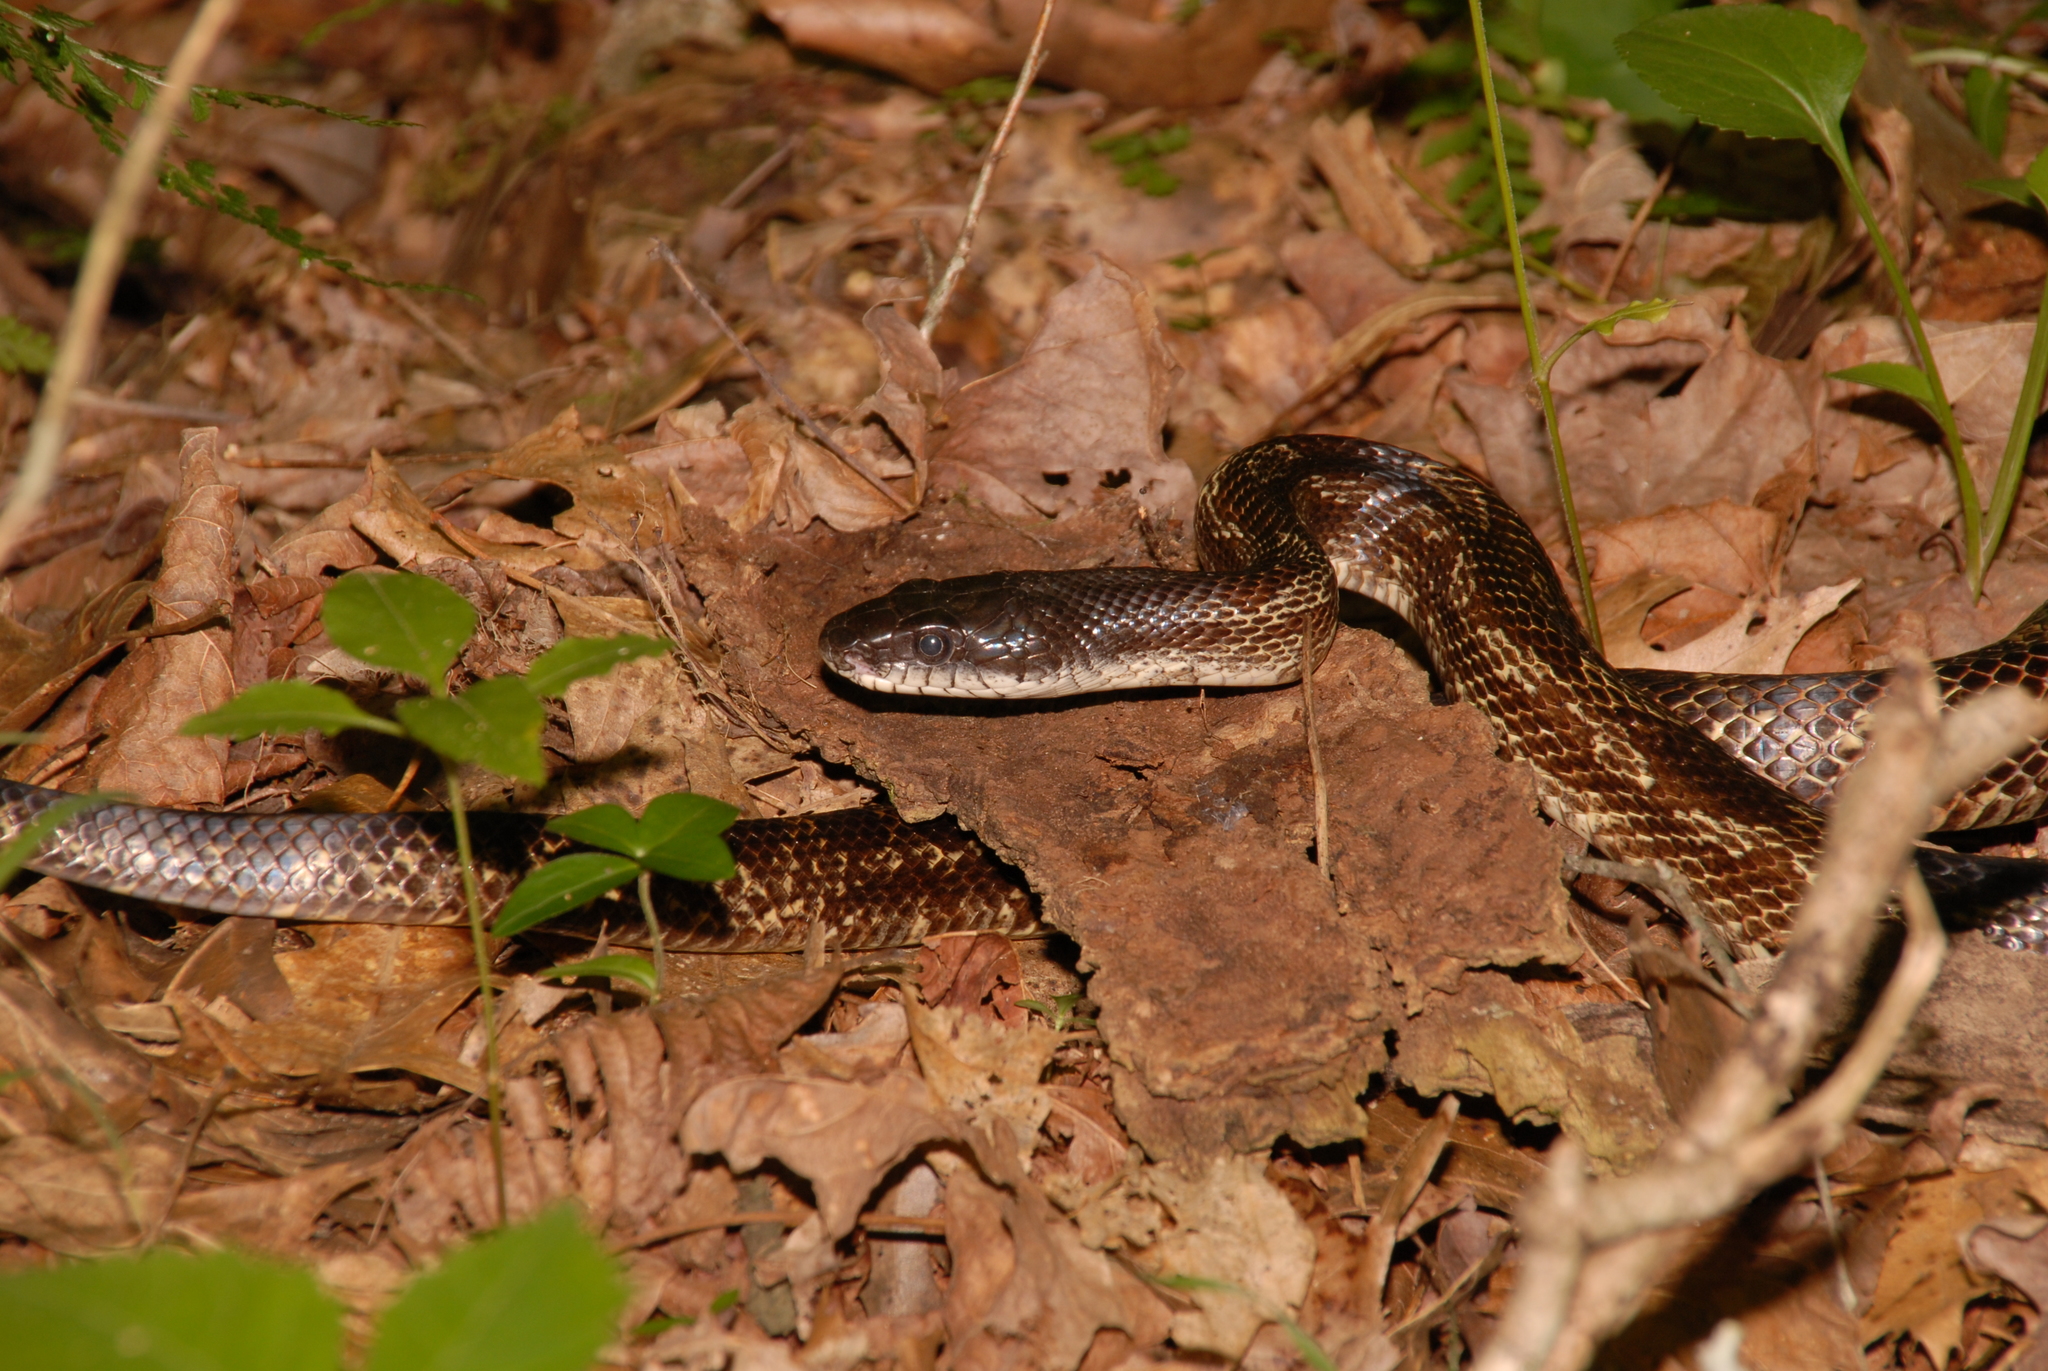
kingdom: Animalia
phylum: Chordata
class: Squamata
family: Colubridae
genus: Pantherophis
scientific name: Pantherophis spiloides
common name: Gray rat snake
